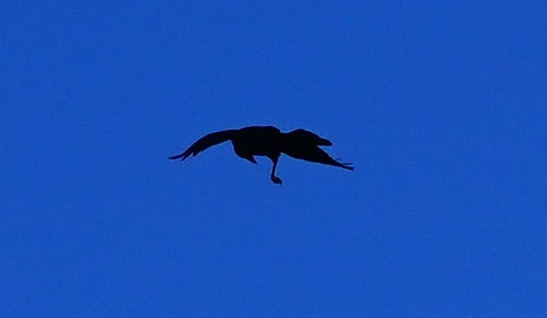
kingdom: Animalia
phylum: Chordata
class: Aves
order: Passeriformes
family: Corvidae
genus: Corvus
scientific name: Corvus corax
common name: Common raven
